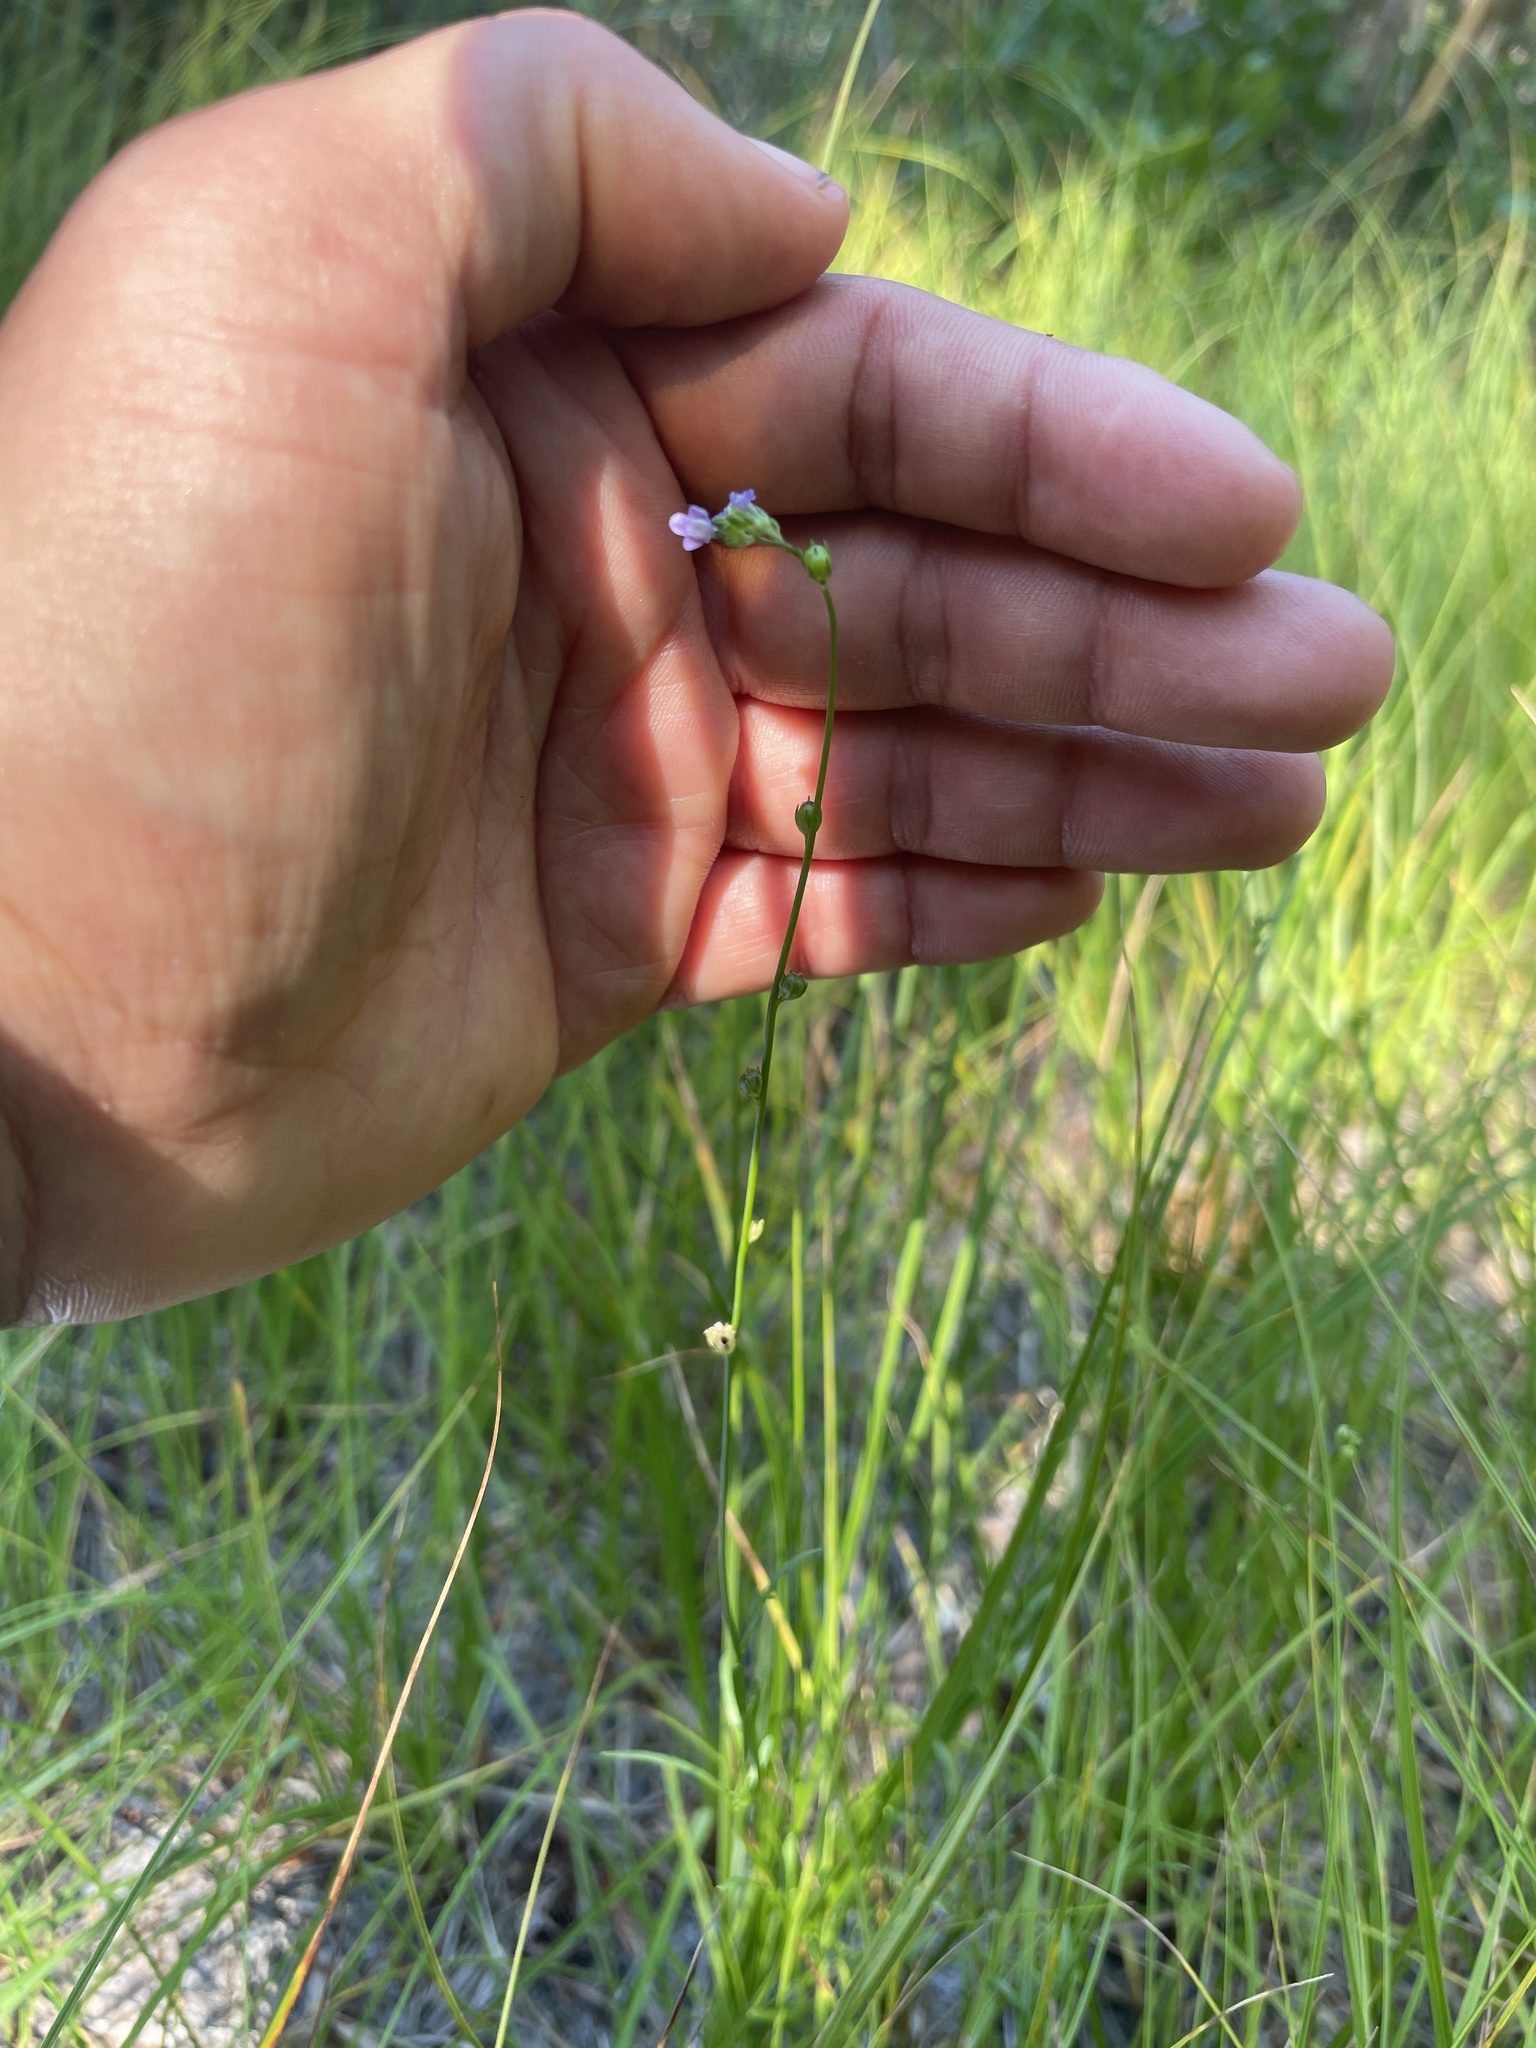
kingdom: Plantae
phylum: Tracheophyta
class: Magnoliopsida
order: Lamiales
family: Plantaginaceae
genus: Nuttallanthus
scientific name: Nuttallanthus canadensis
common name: Blue toadflax
